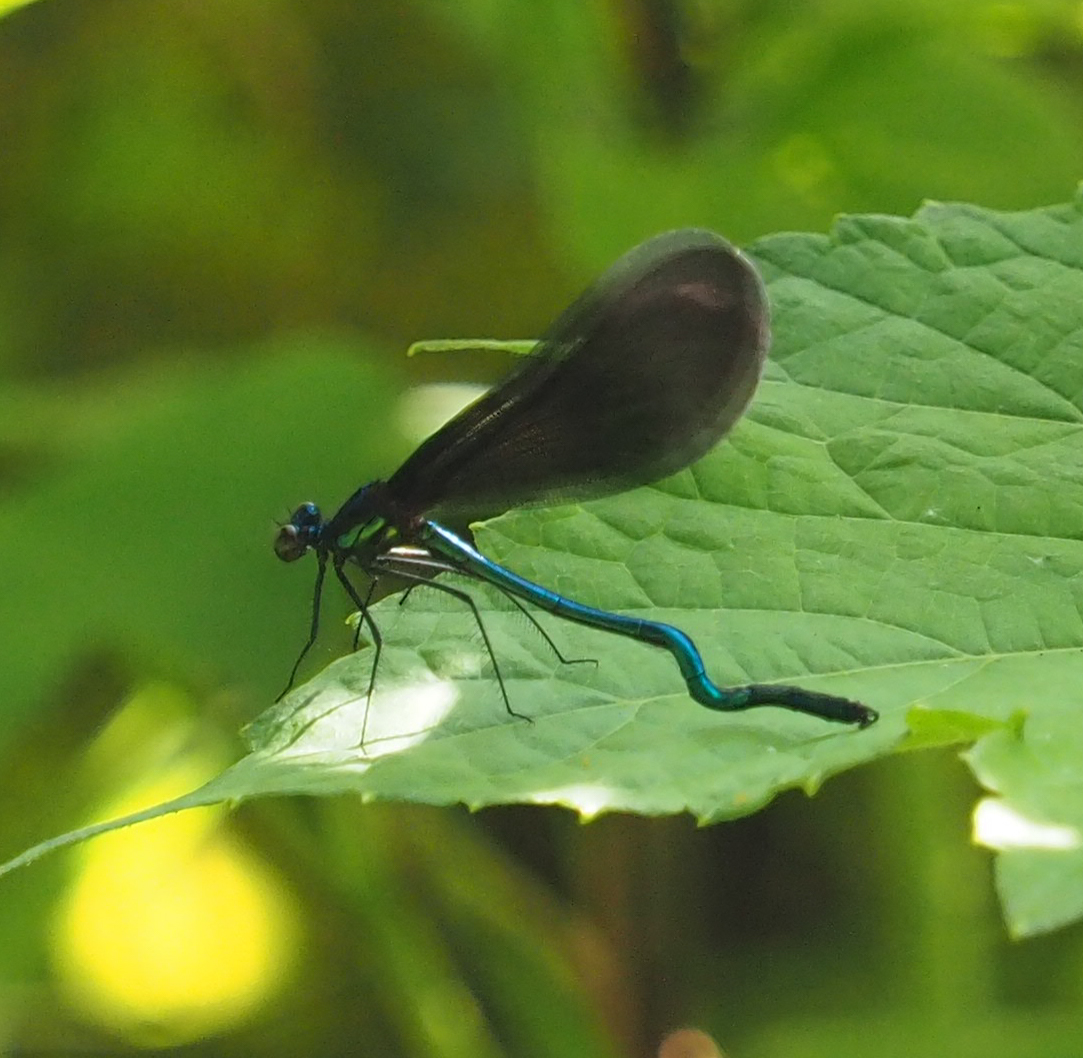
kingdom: Animalia
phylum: Arthropoda
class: Insecta
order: Odonata
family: Calopterygidae
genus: Calopteryx
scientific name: Calopteryx maculata
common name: Ebony jewelwing
